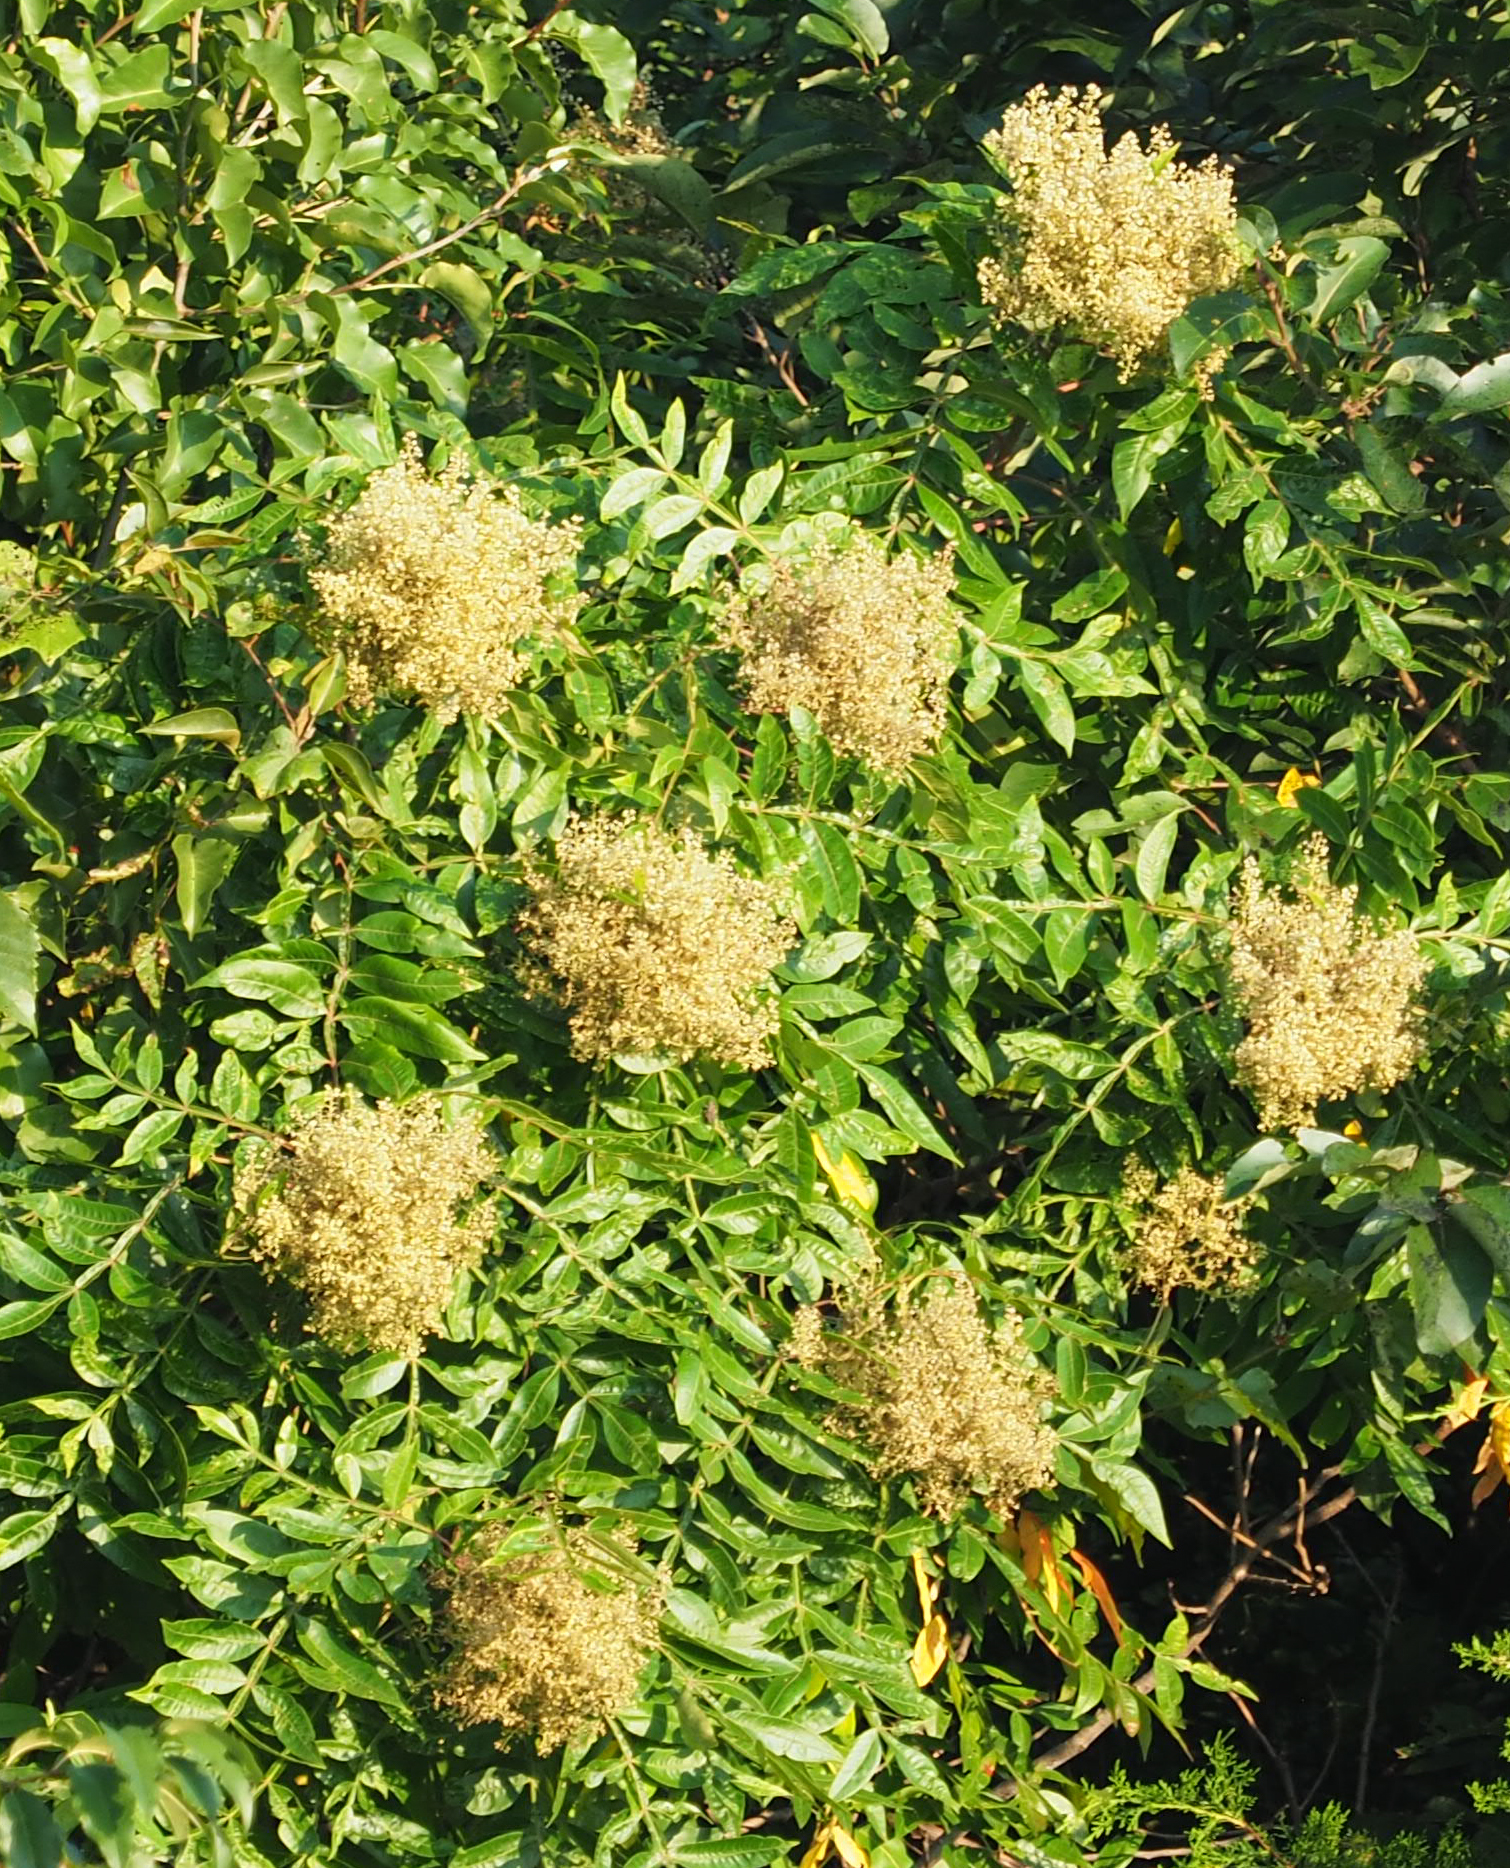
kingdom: Plantae
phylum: Tracheophyta
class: Magnoliopsida
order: Sapindales
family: Anacardiaceae
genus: Rhus
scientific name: Rhus copallina
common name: Shining sumac
